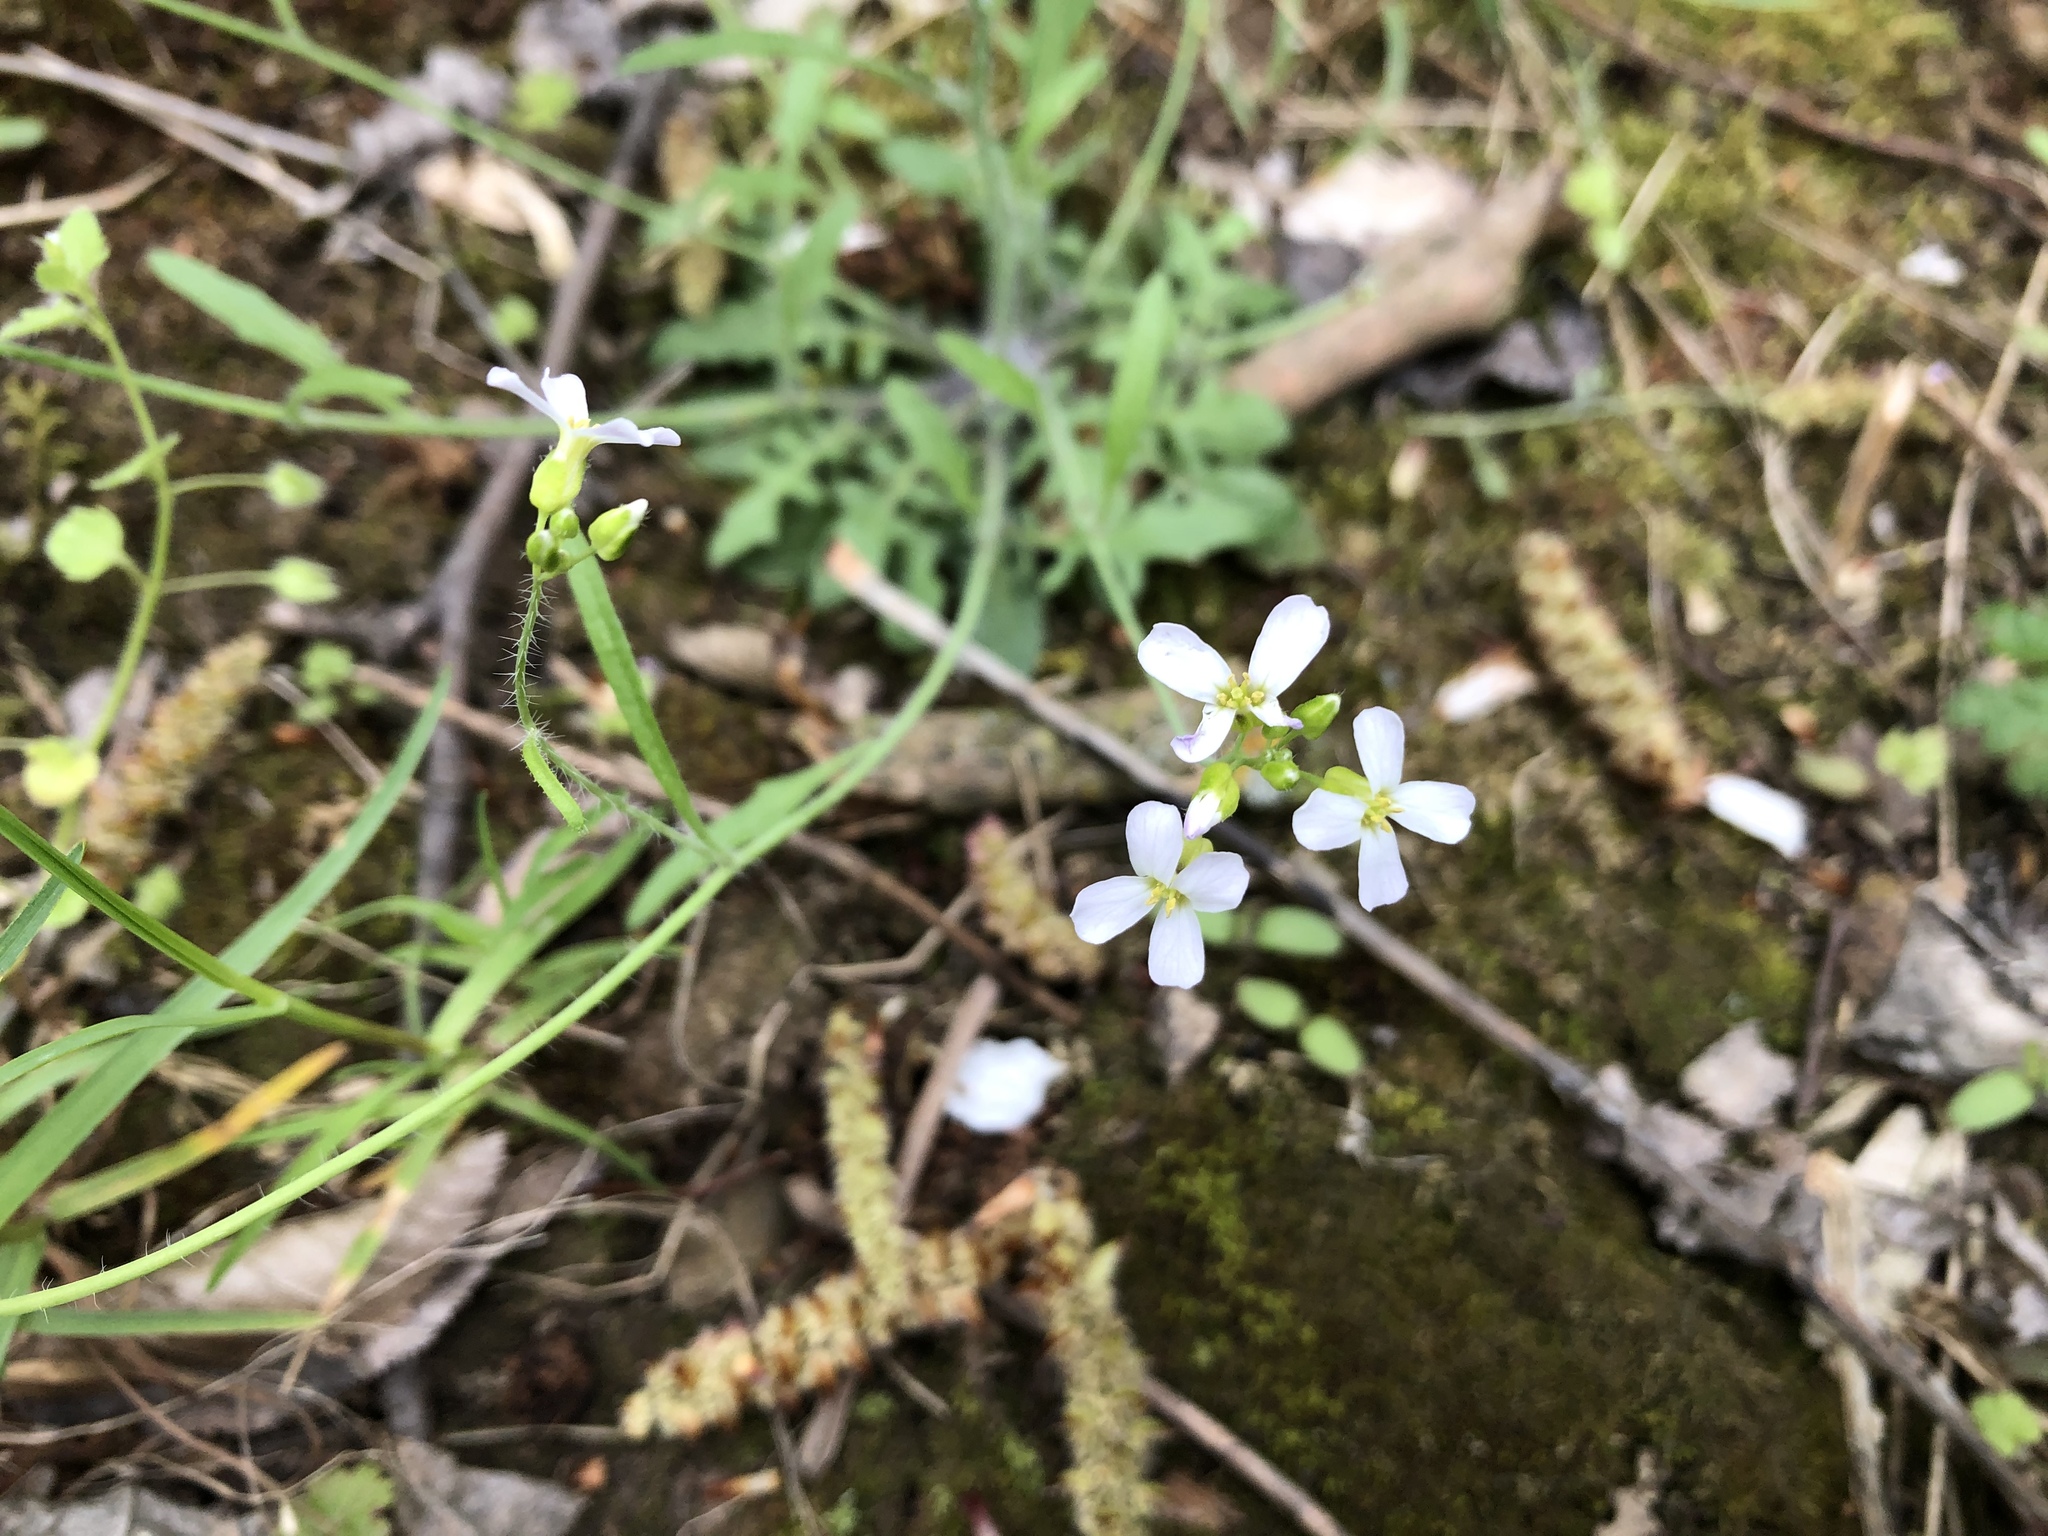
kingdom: Plantae
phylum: Tracheophyta
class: Magnoliopsida
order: Brassicales
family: Brassicaceae
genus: Arabidopsis
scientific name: Arabidopsis arenosa
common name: Sand rock-cress
